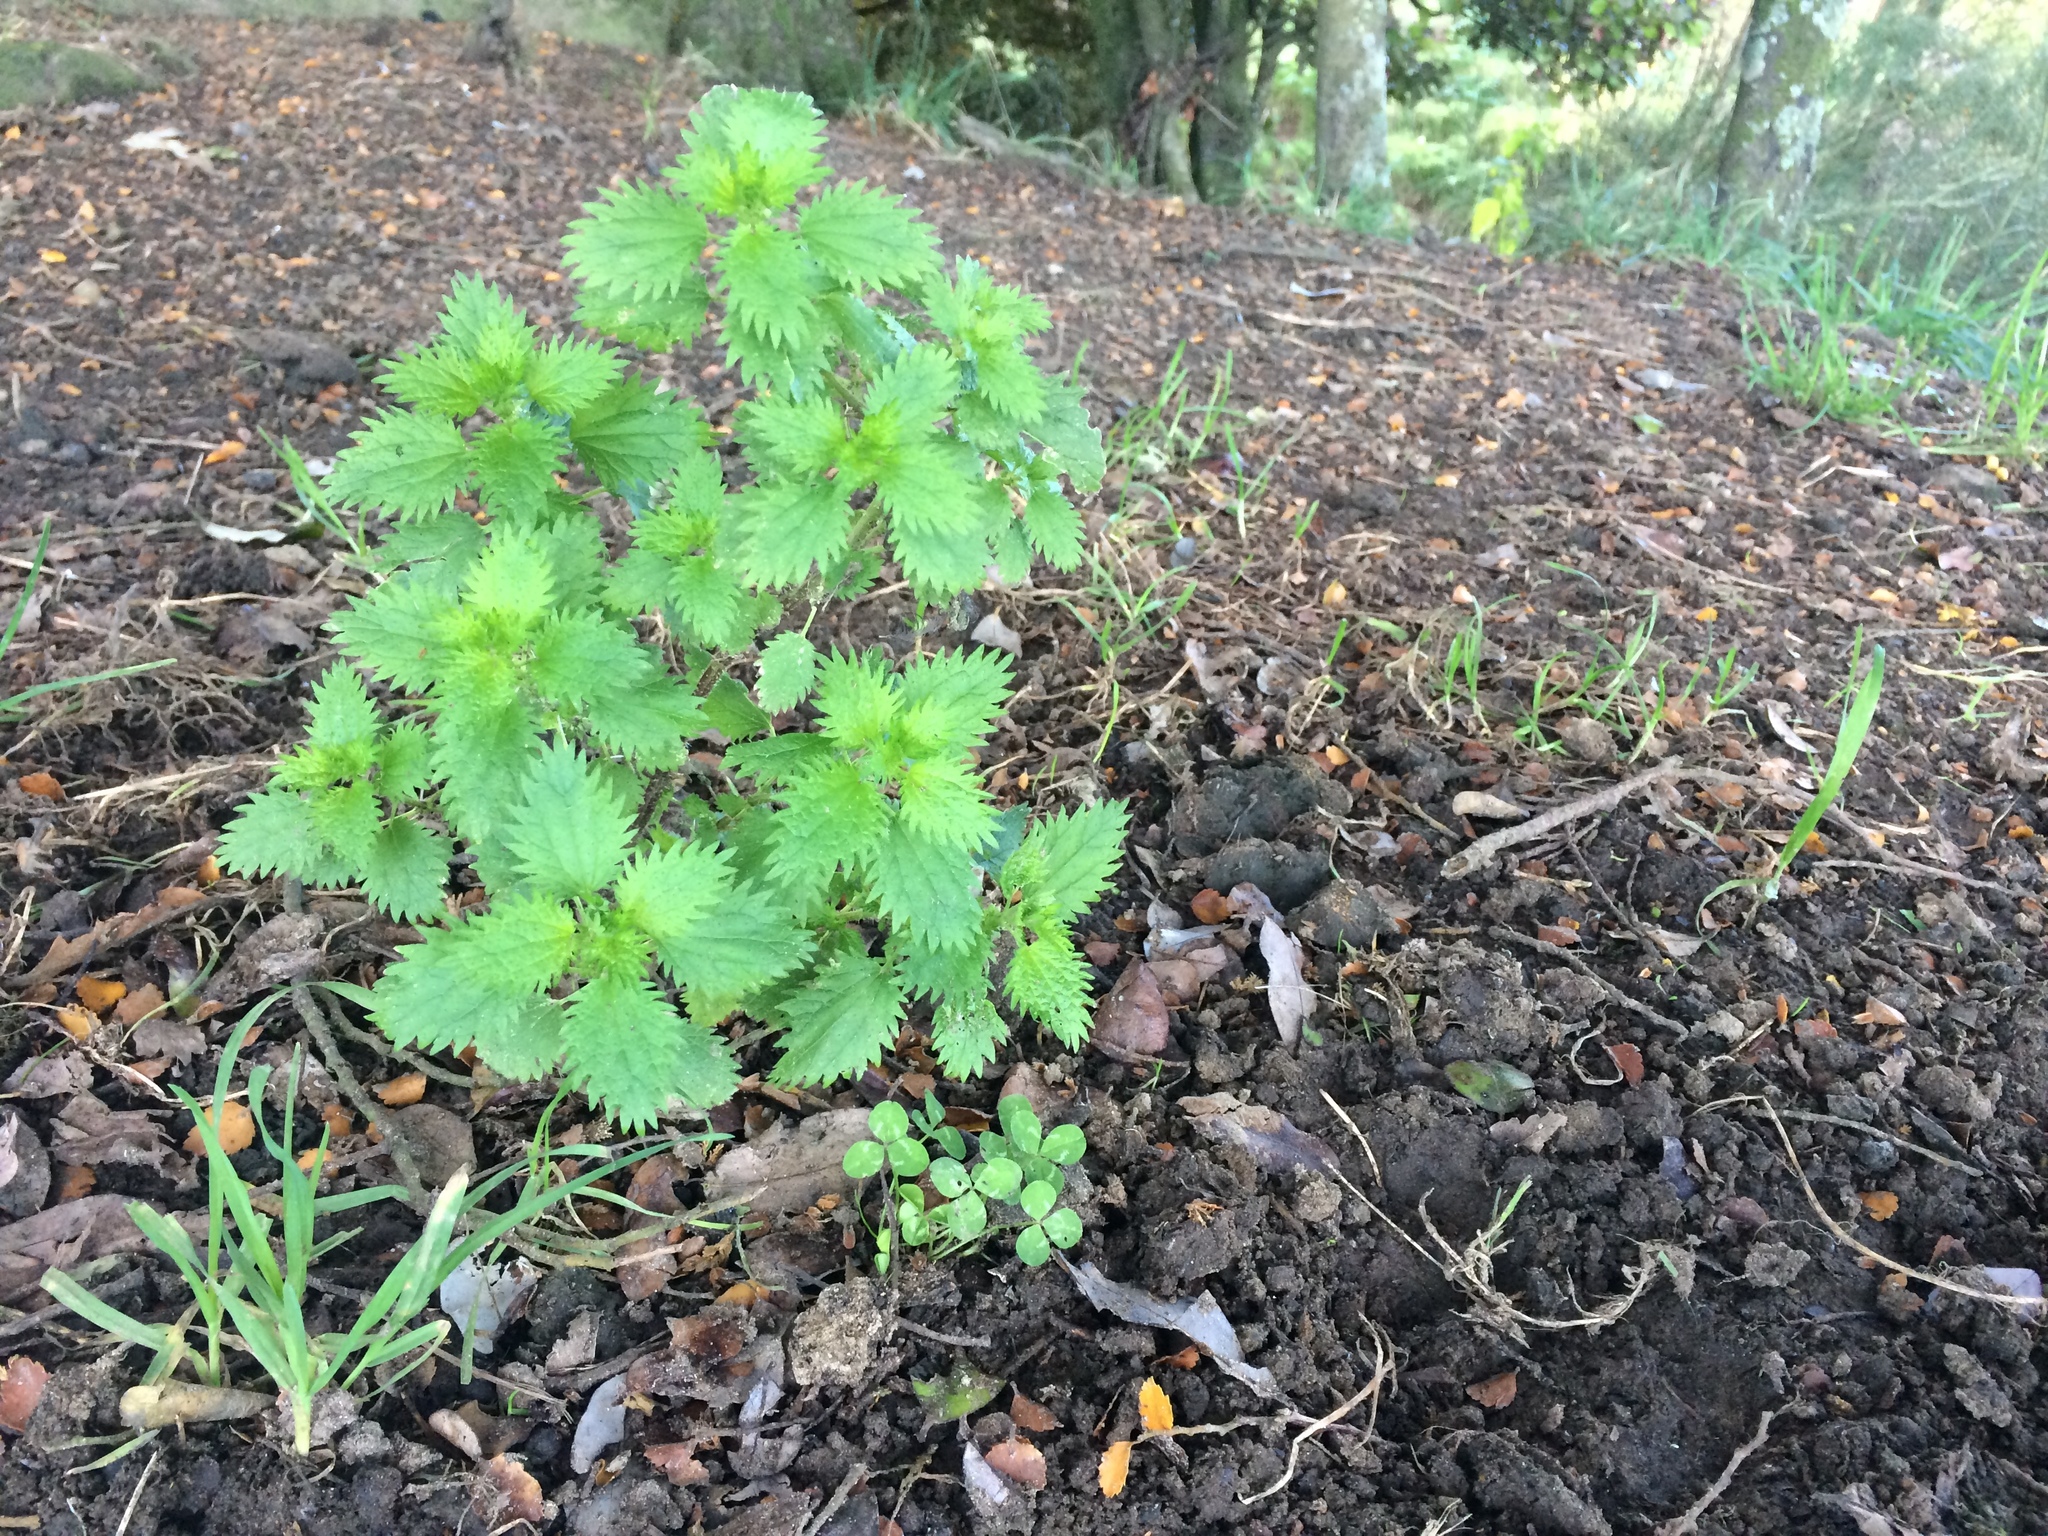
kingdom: Plantae
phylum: Tracheophyta
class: Magnoliopsida
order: Rosales
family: Urticaceae
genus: Urtica
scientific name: Urtica urens
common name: Dwarf nettle
